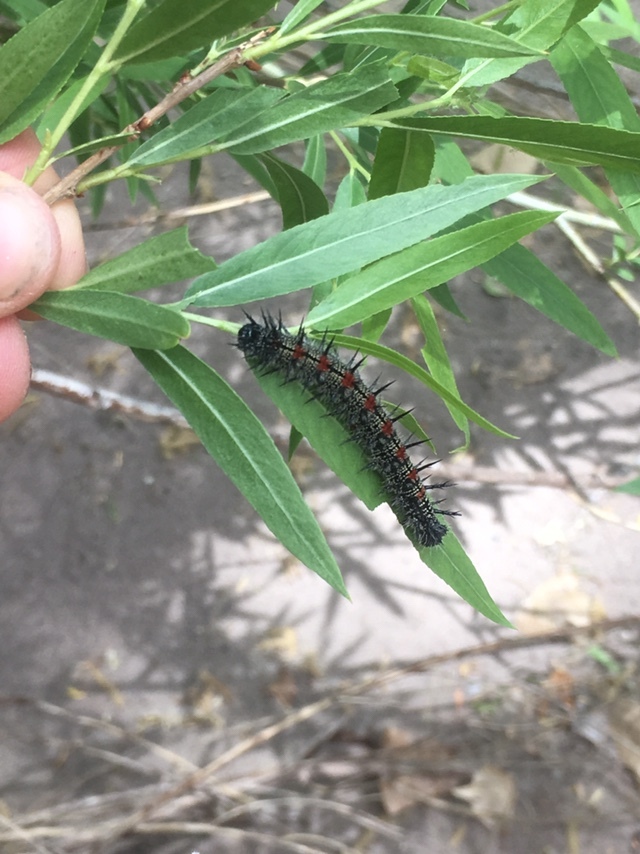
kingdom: Animalia
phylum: Arthropoda
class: Insecta
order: Lepidoptera
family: Nymphalidae
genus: Nymphalis
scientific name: Nymphalis antiopa
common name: Camberwell beauty
